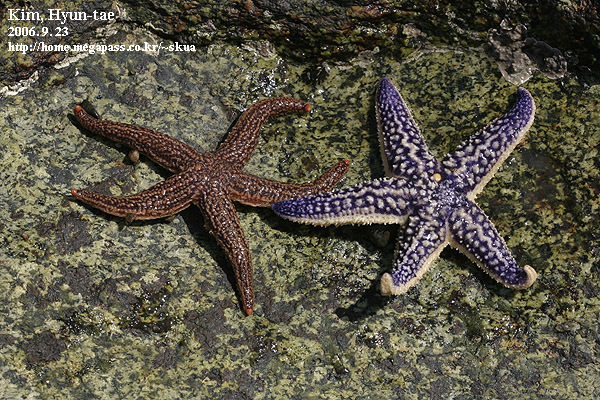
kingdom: Animalia
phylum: Echinodermata
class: Asteroidea
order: Forcipulatida
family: Asteriidae
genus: Asterias
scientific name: Asterias amurensis
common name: Flat-bottomed star
